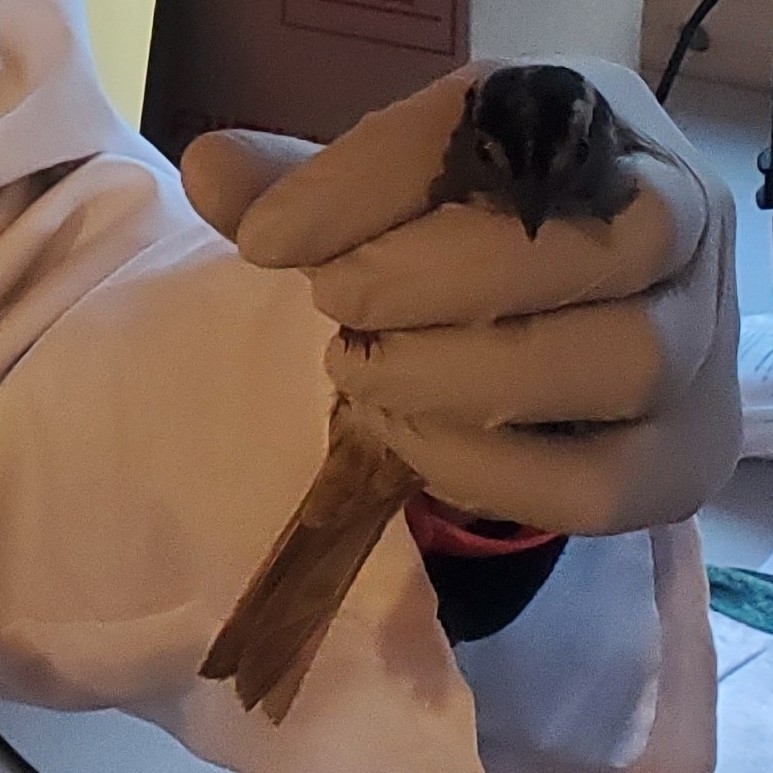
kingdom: Animalia
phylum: Chordata
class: Aves
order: Passeriformes
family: Passerellidae
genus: Spizella
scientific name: Spizella pallida
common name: Clay-colored sparrow
